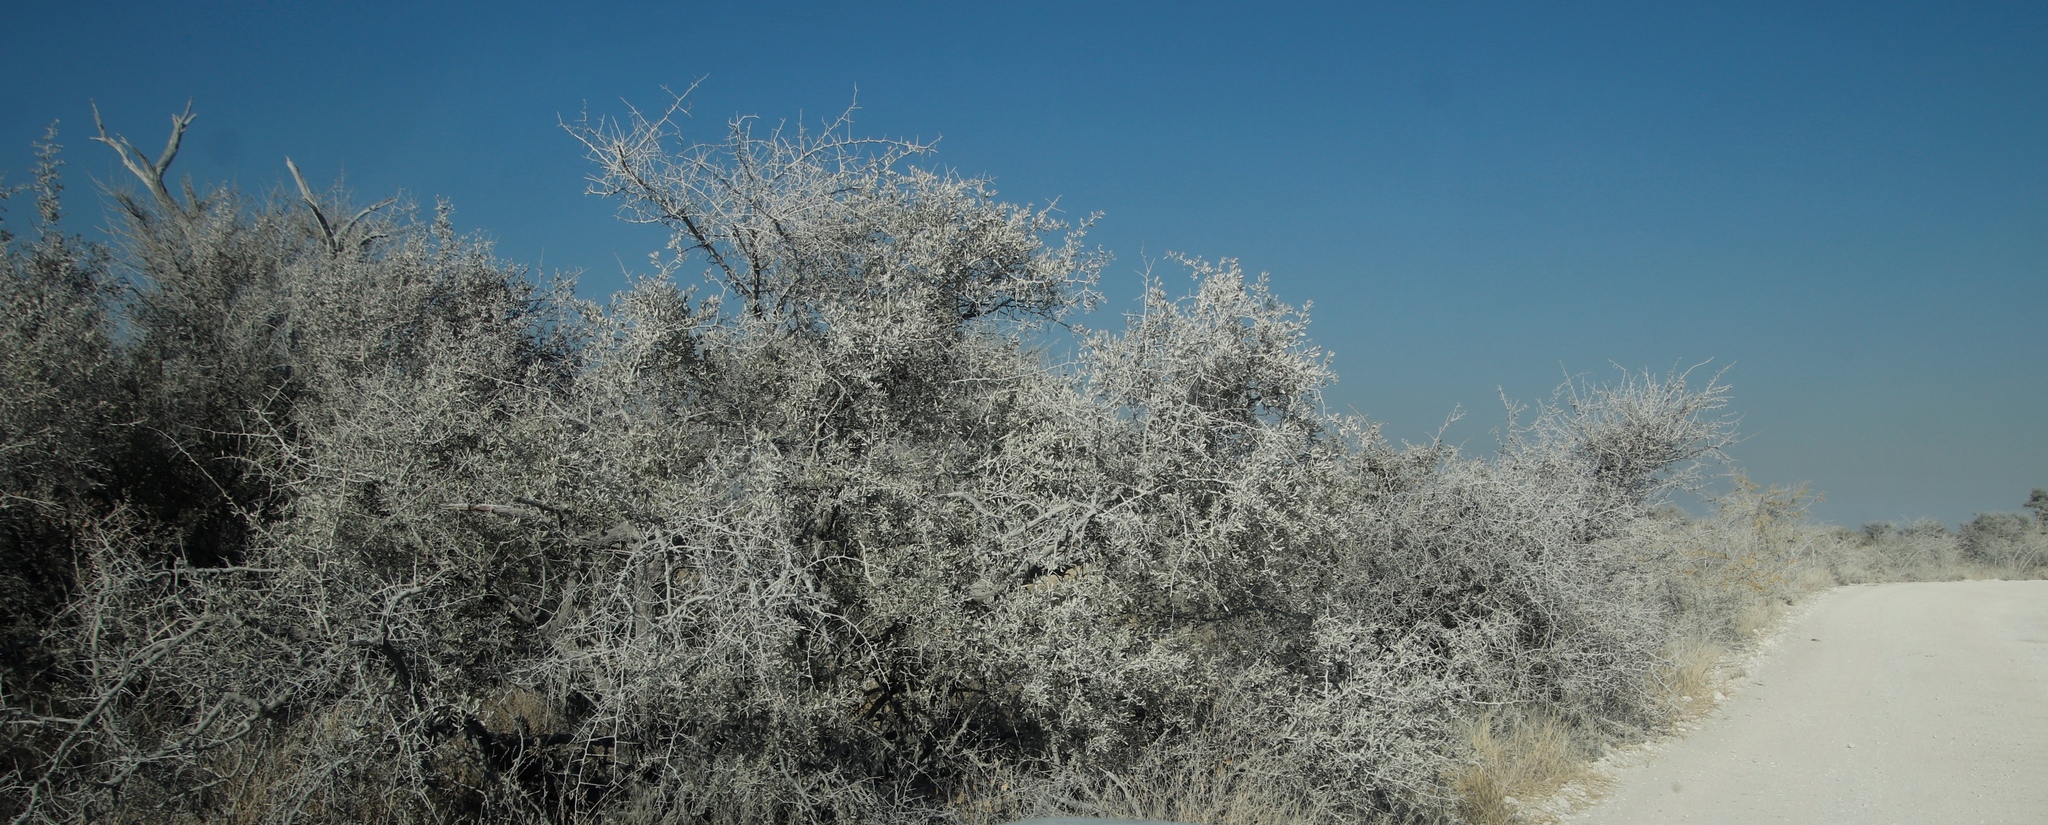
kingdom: Plantae
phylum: Tracheophyta
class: Magnoliopsida
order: Celastrales
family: Celastraceae
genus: Gymnosporia
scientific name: Gymnosporia senegalensis
